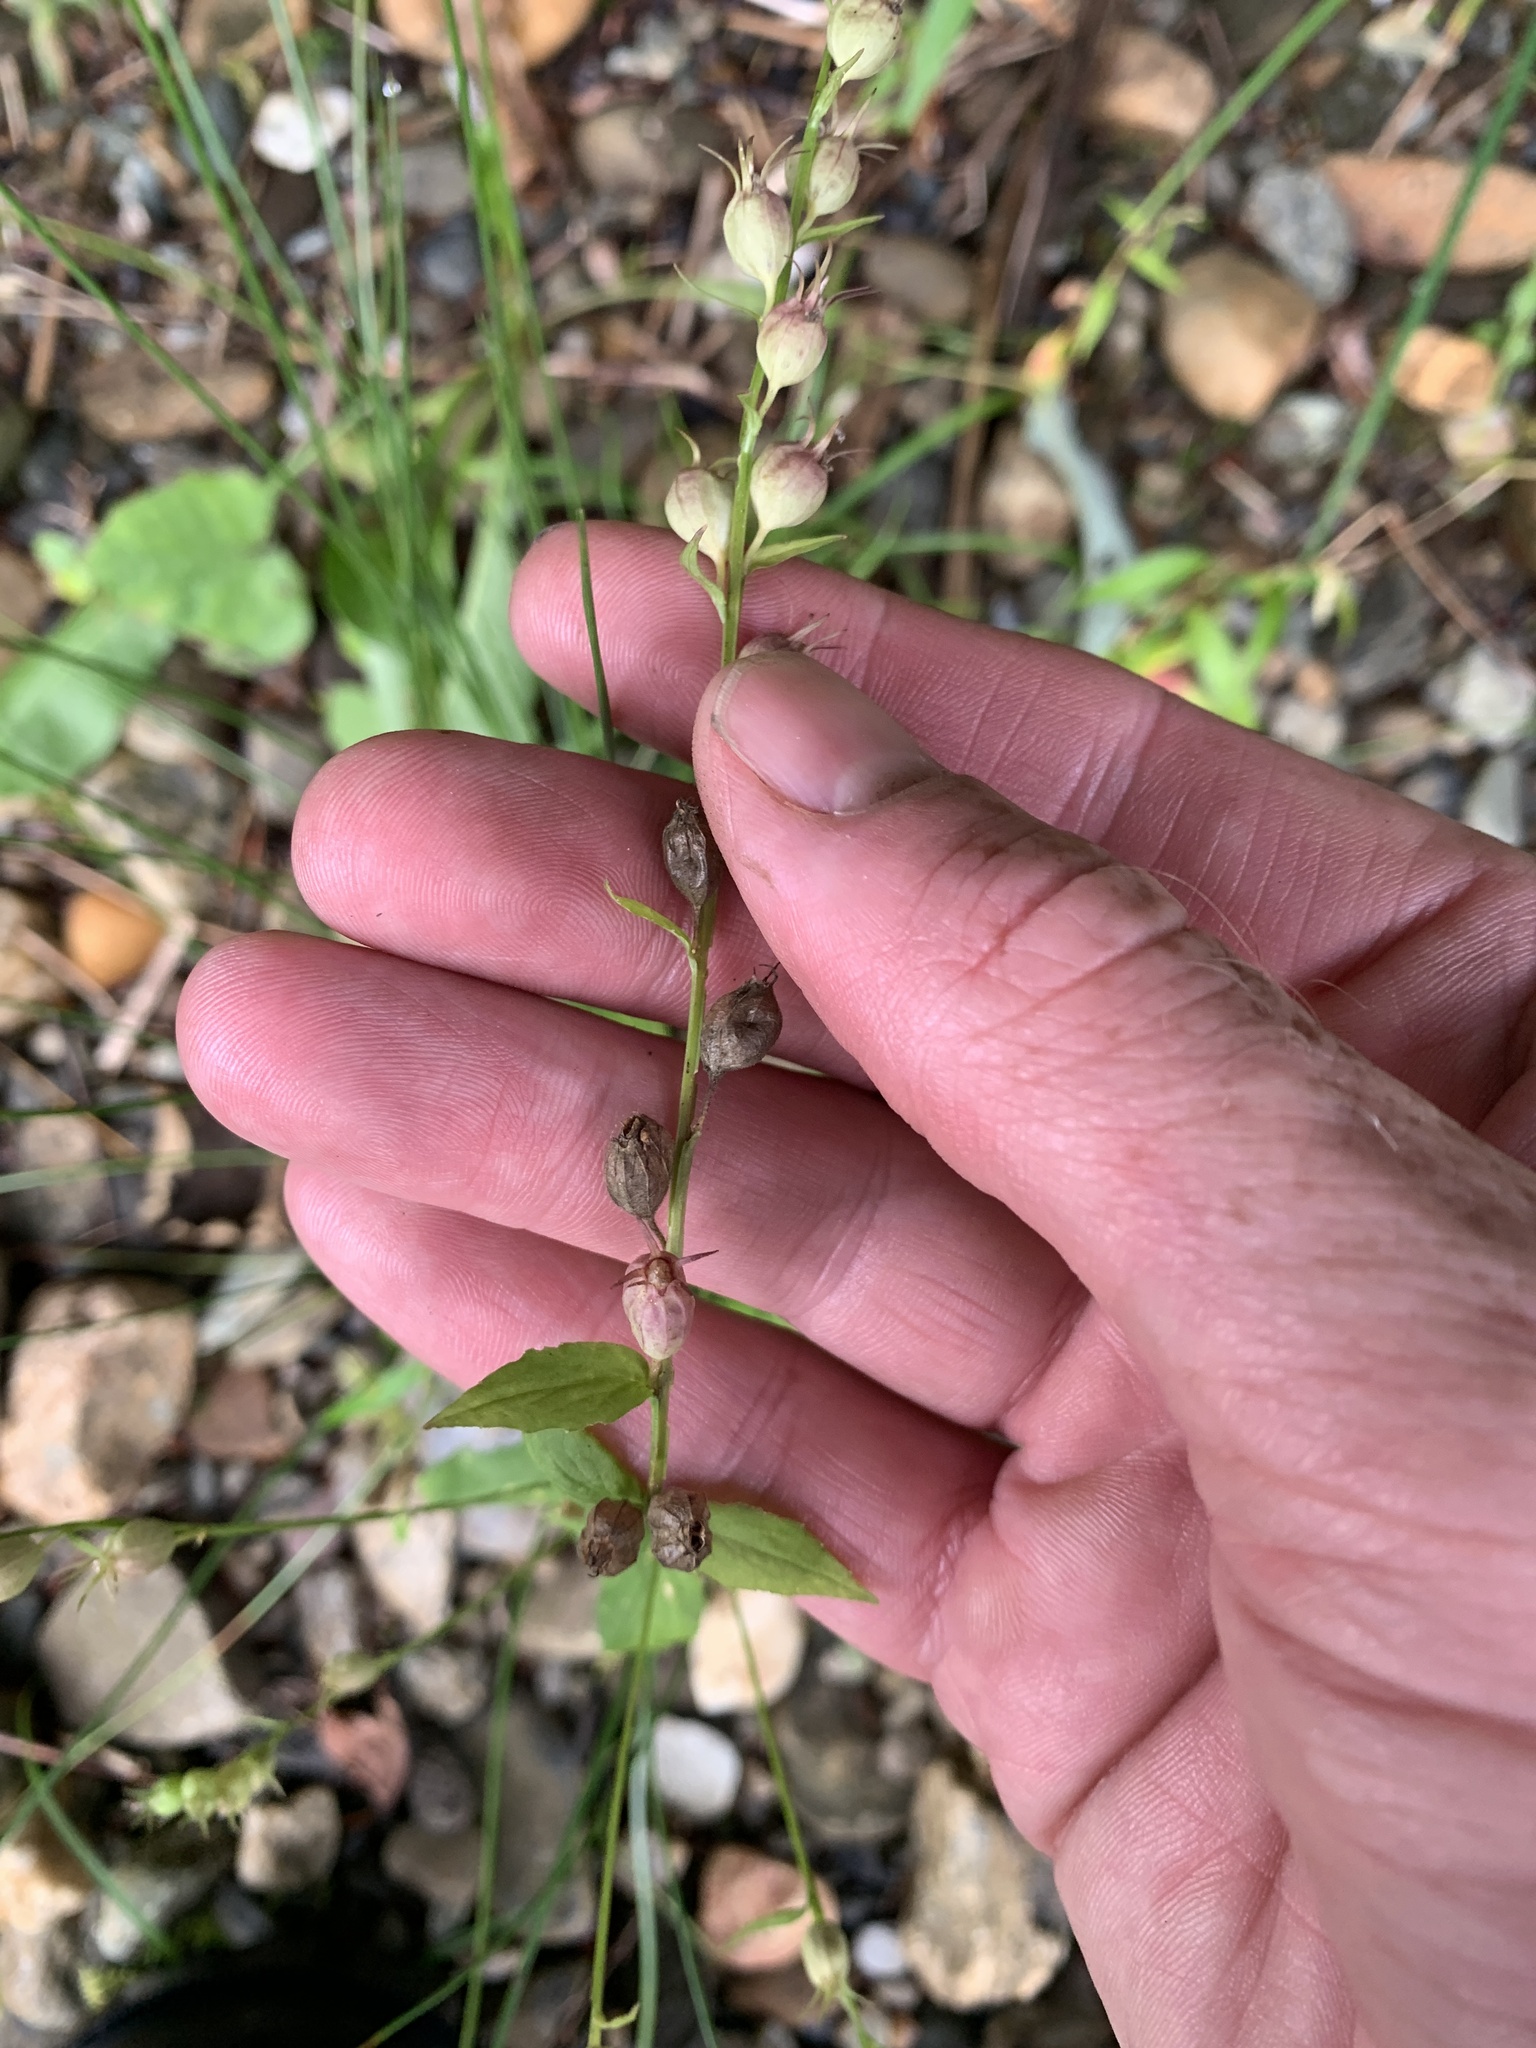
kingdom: Plantae
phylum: Tracheophyta
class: Magnoliopsida
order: Asterales
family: Campanulaceae
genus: Lobelia
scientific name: Lobelia inflata
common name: Indian tobacco
